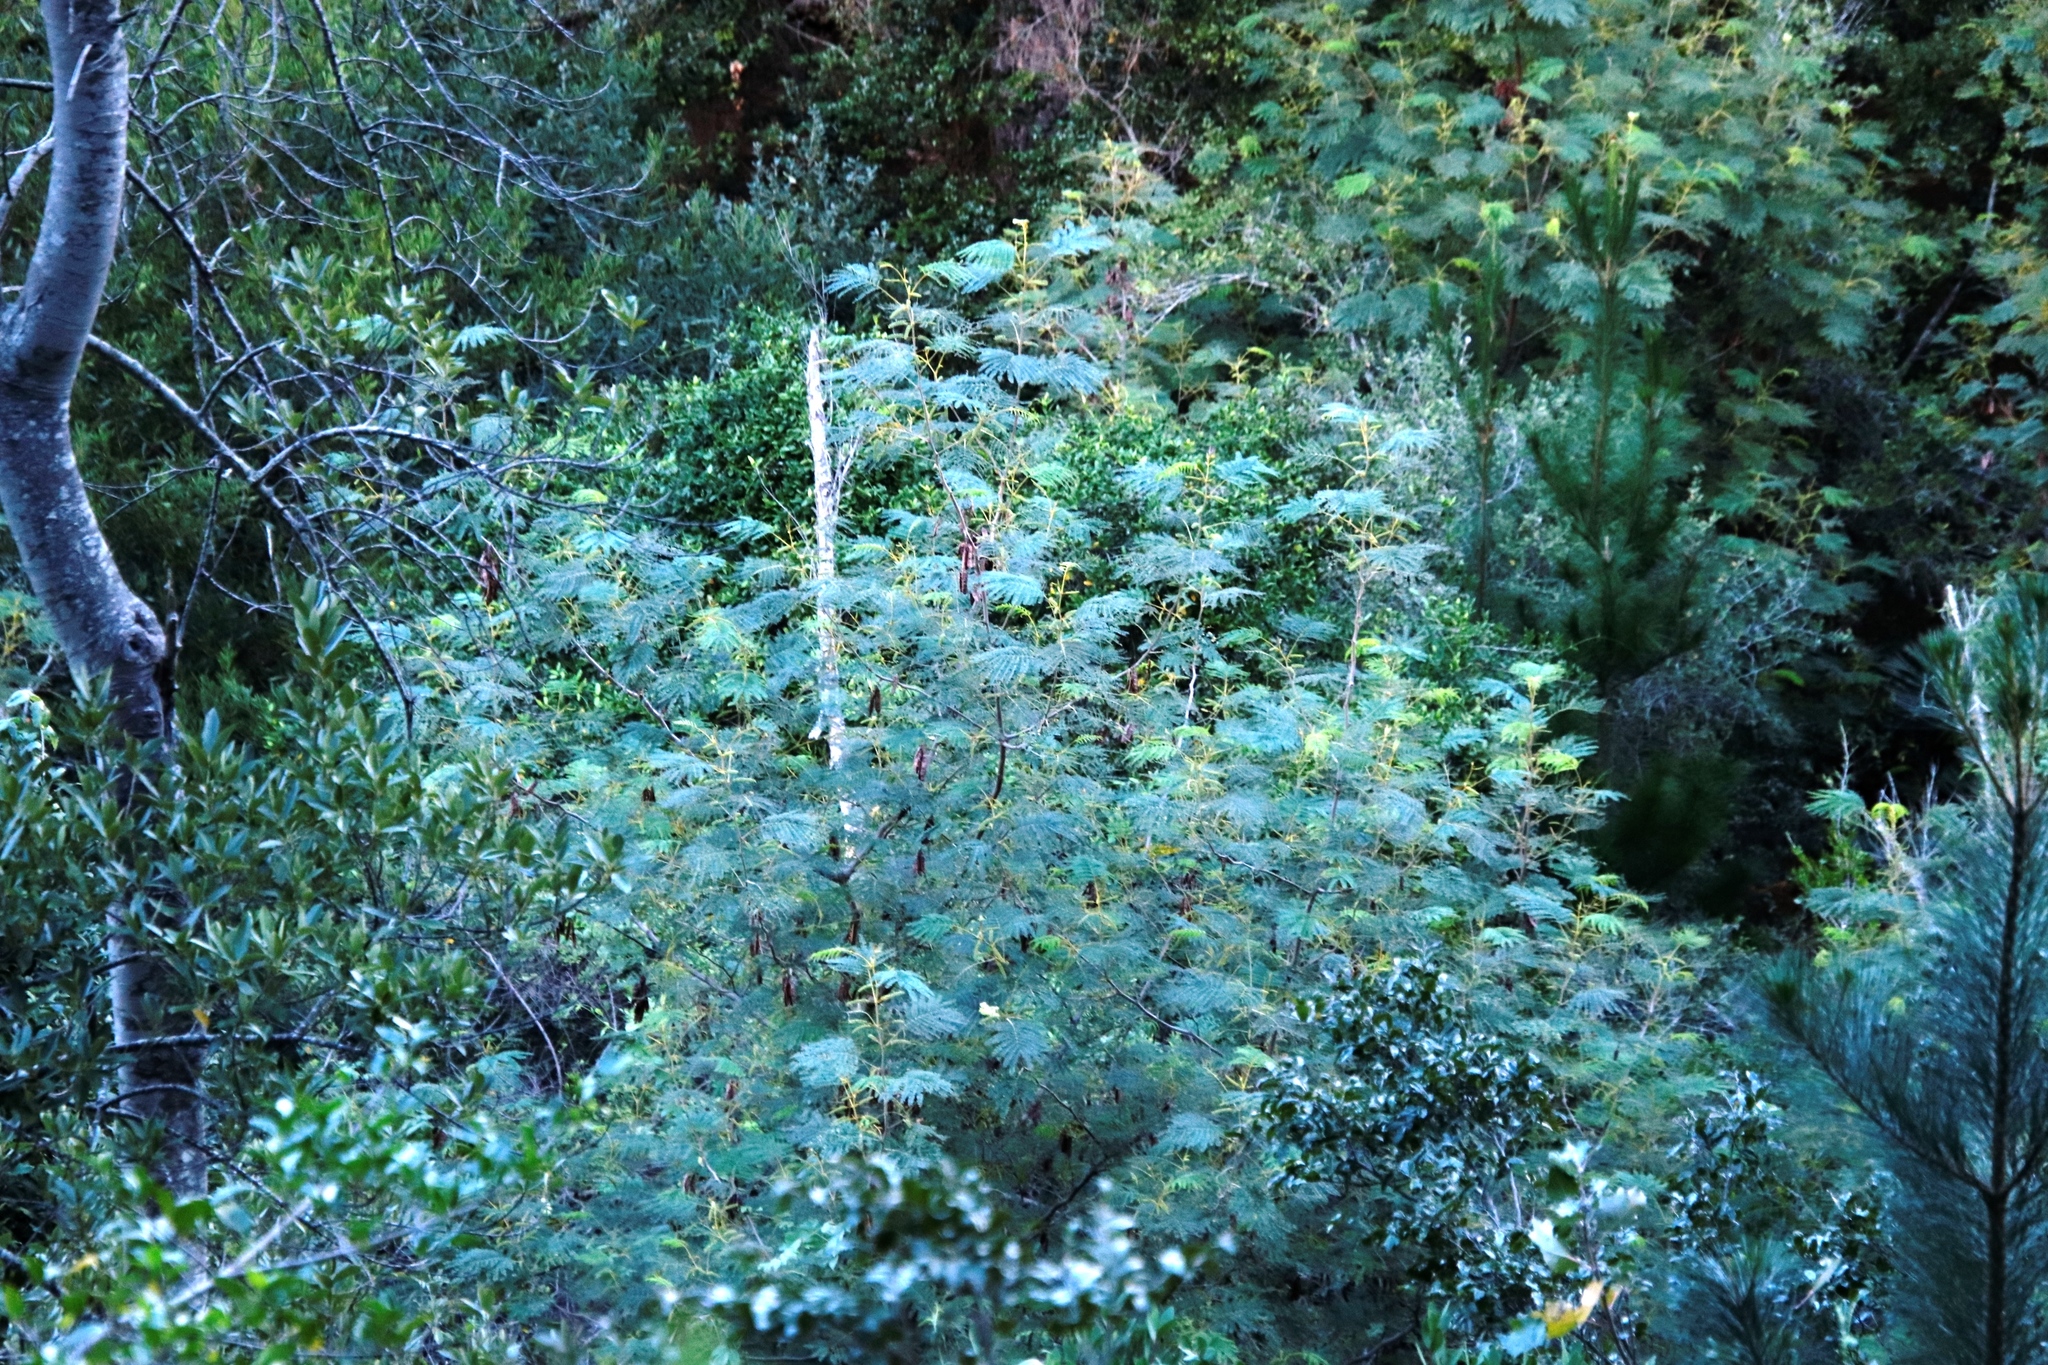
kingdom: Plantae
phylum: Tracheophyta
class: Magnoliopsida
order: Fabales
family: Fabaceae
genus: Paraserianthes
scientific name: Paraserianthes lophantha
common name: Plume albizia
